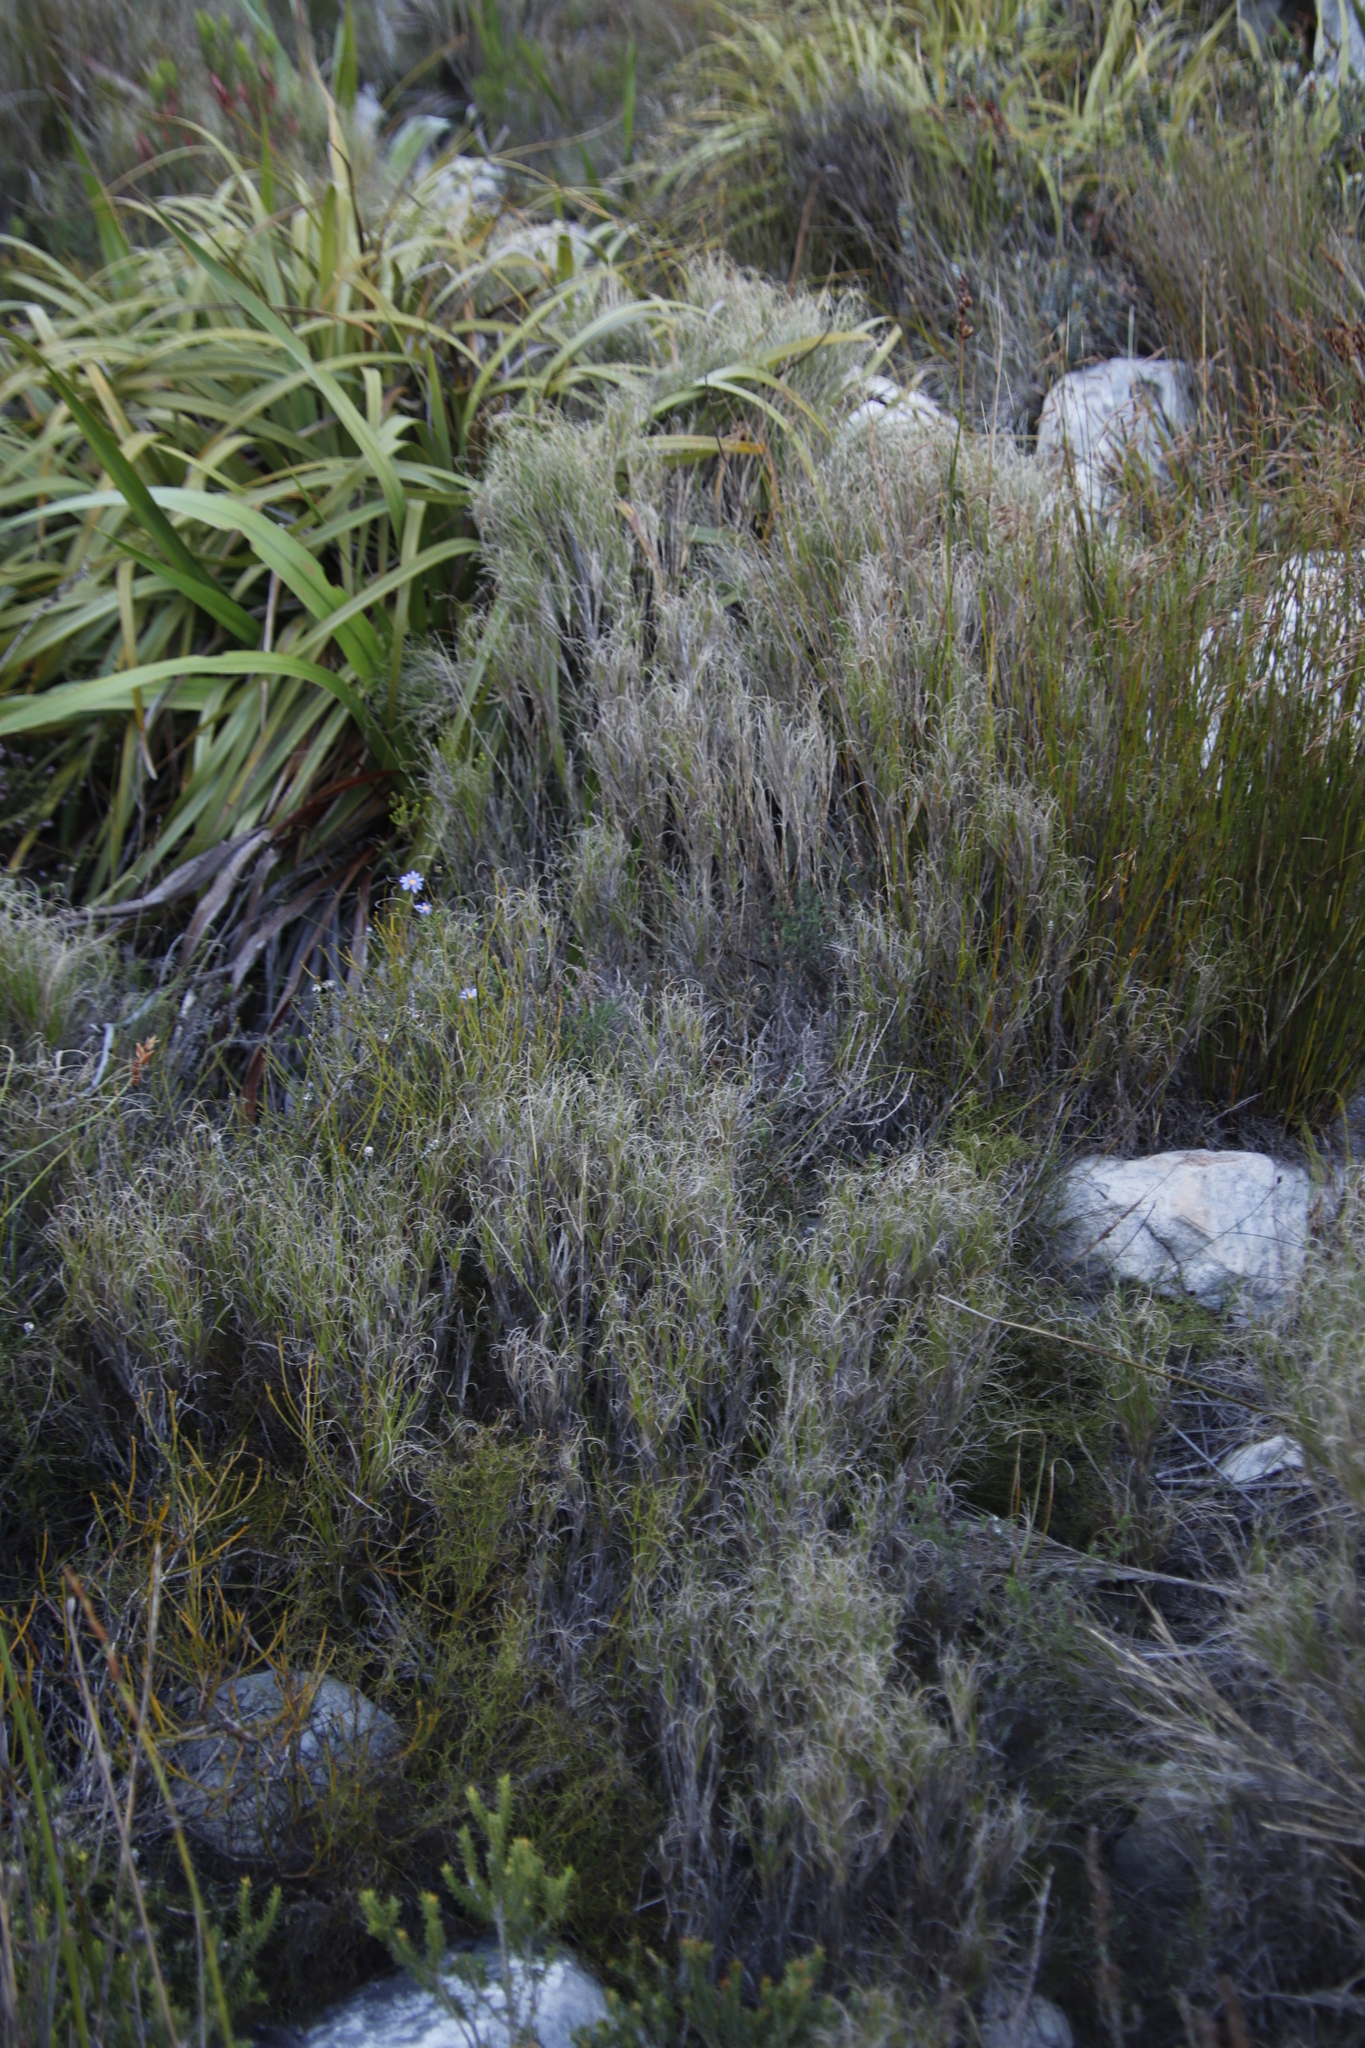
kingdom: Plantae
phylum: Tracheophyta
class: Liliopsida
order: Poales
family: Poaceae
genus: Pseudopentameris
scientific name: Pseudopentameris macrantha
